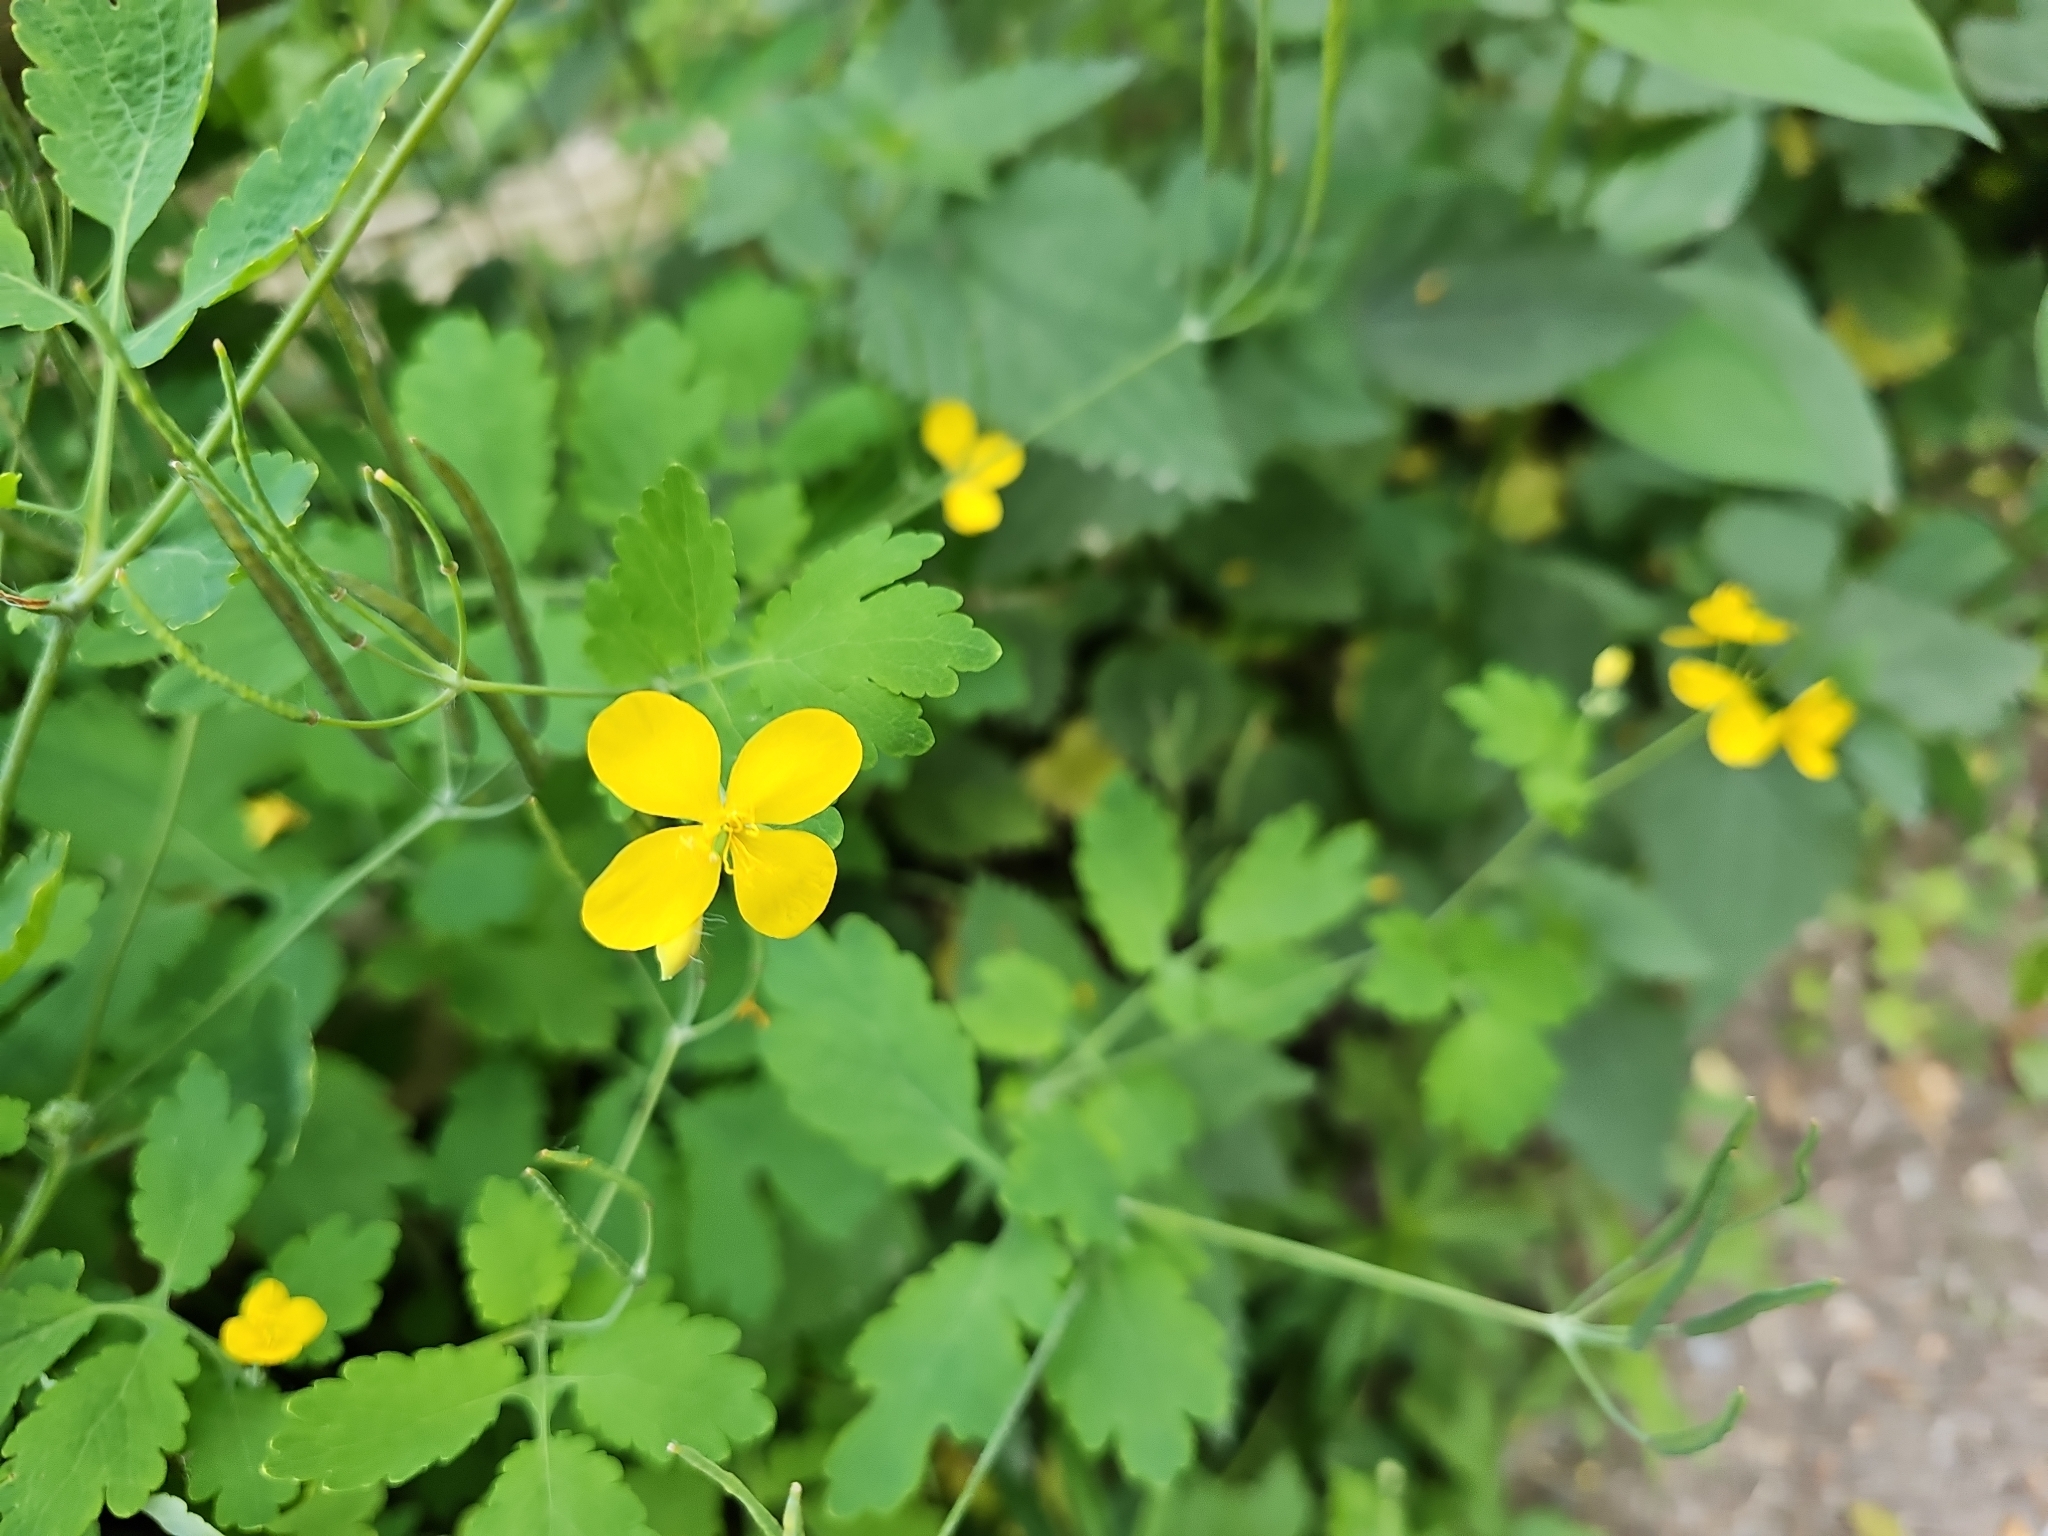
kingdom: Plantae
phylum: Tracheophyta
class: Magnoliopsida
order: Ranunculales
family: Papaveraceae
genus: Chelidonium
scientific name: Chelidonium majus
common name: Greater celandine
